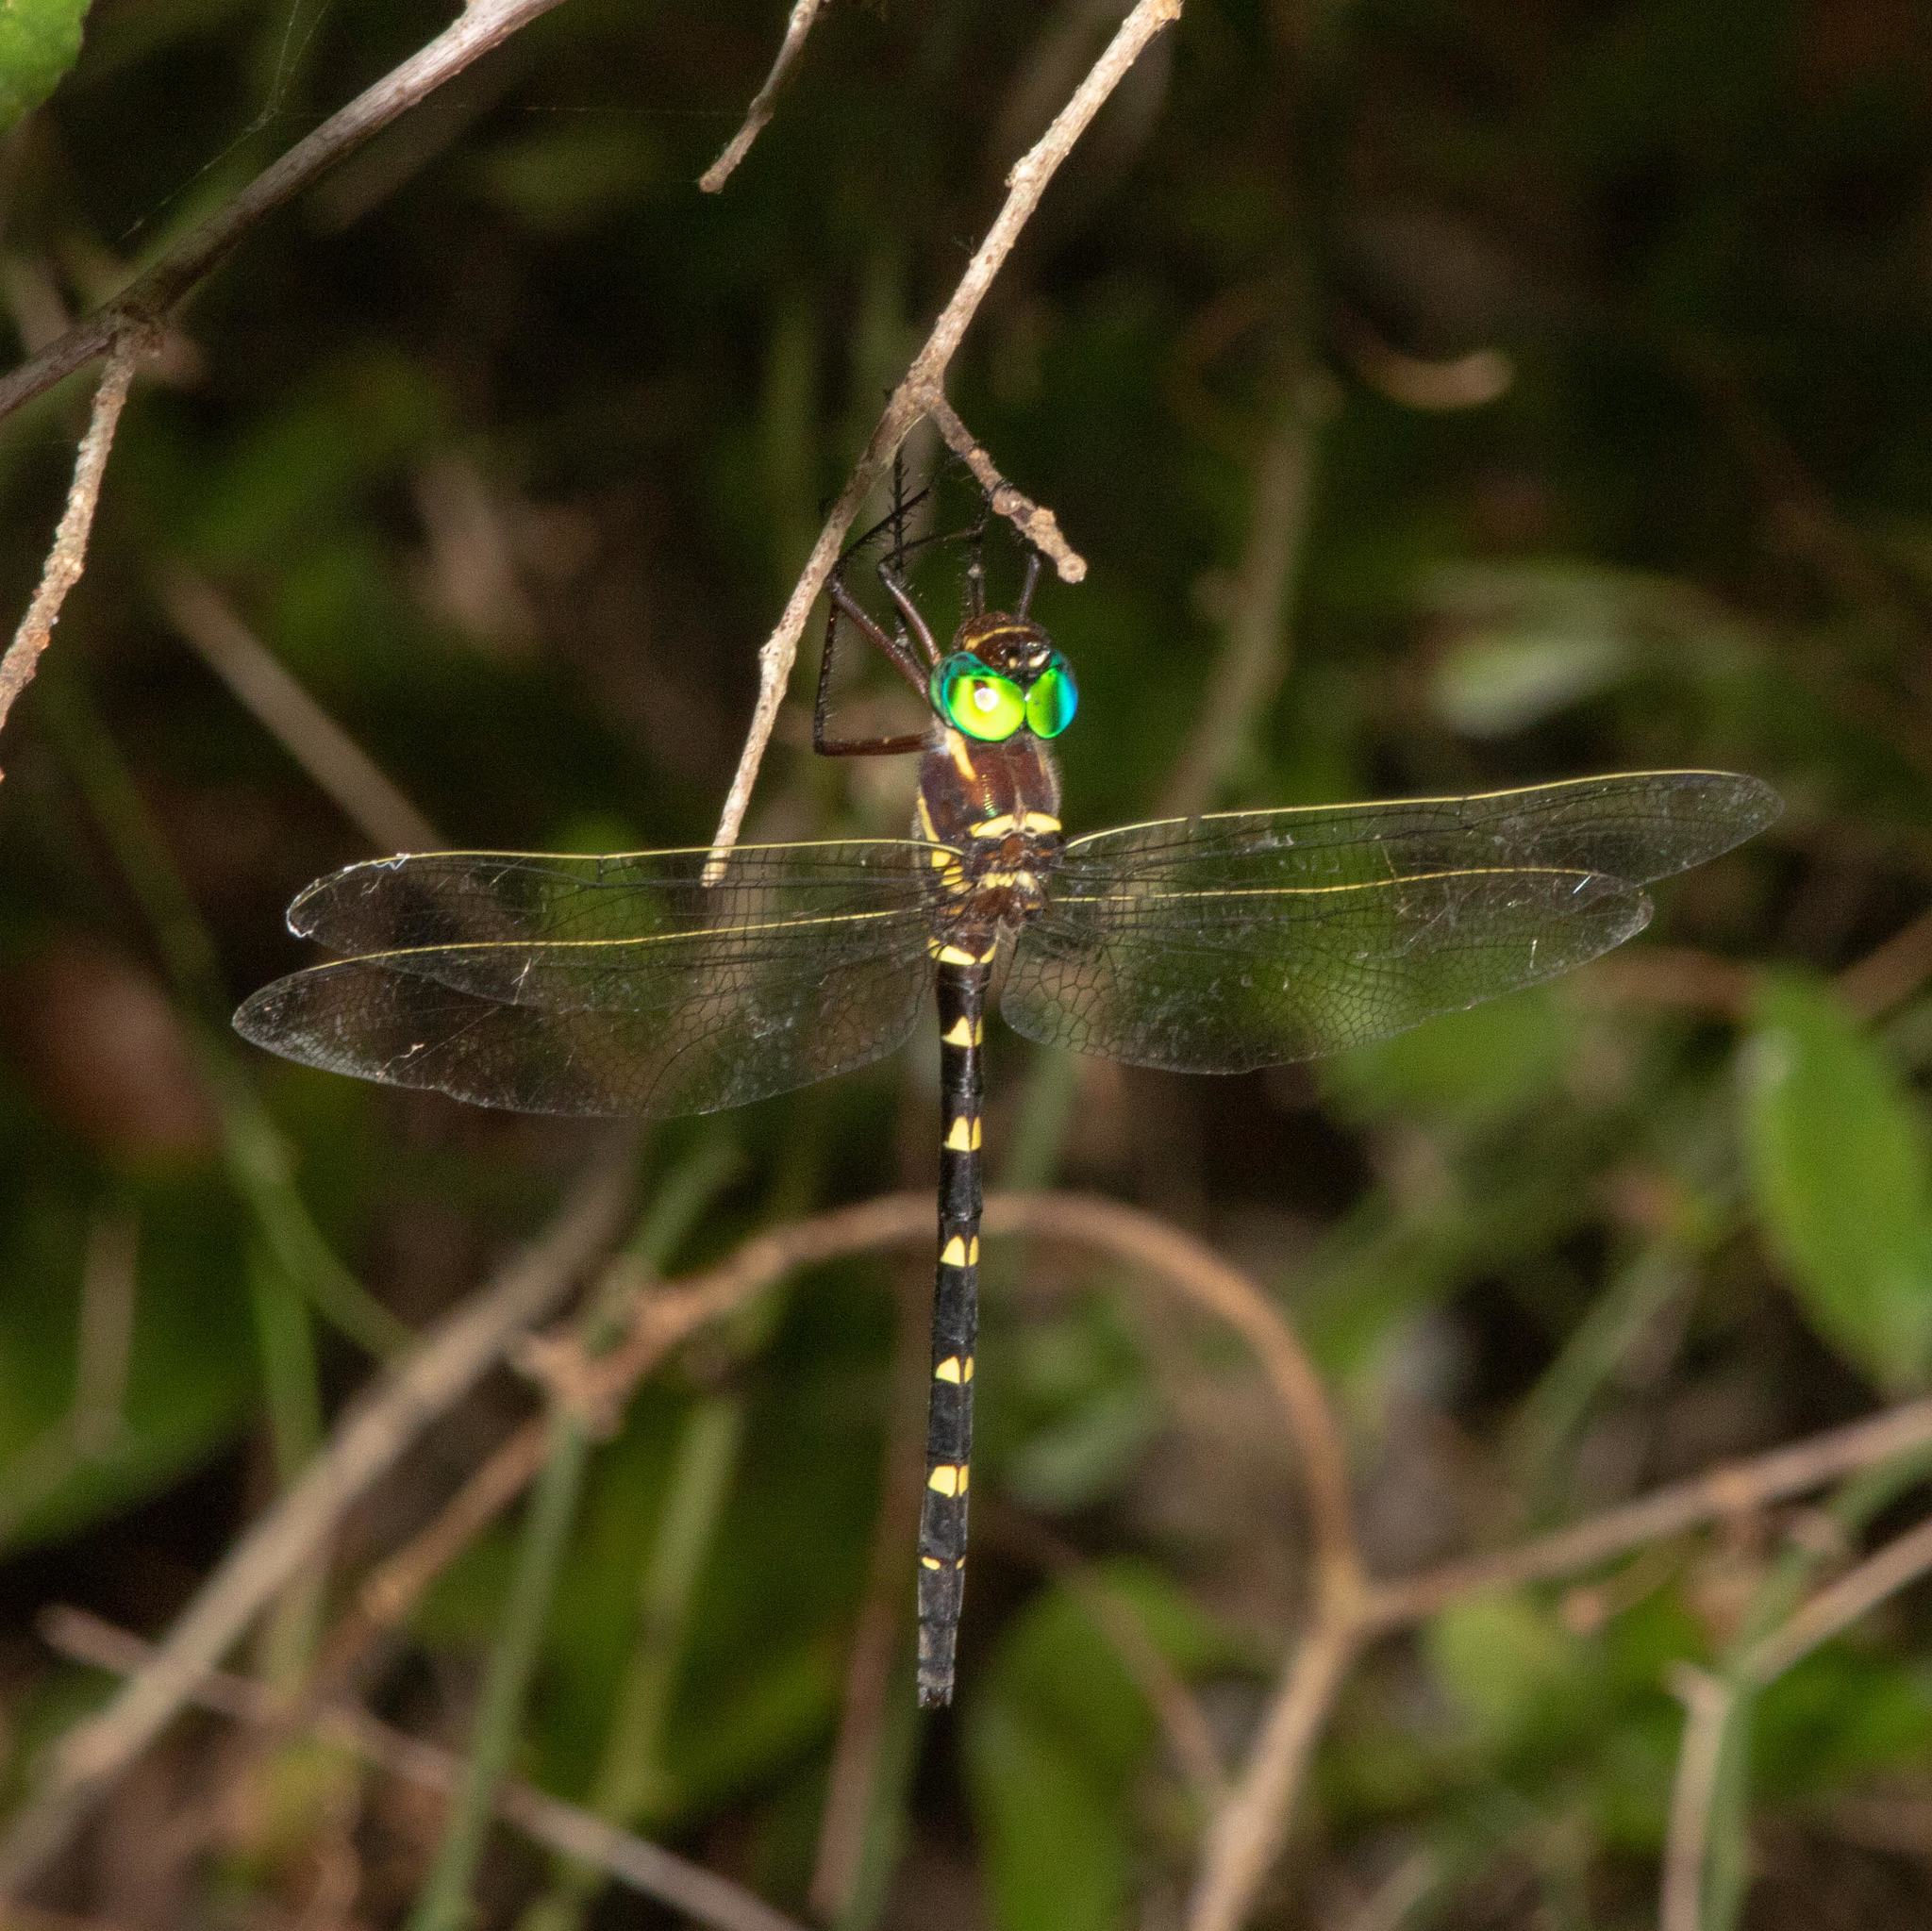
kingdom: Animalia
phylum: Arthropoda
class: Insecta
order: Odonata
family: Macromiidae
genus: Macromia
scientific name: Macromia taeniolata
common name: Royal river cruiser
